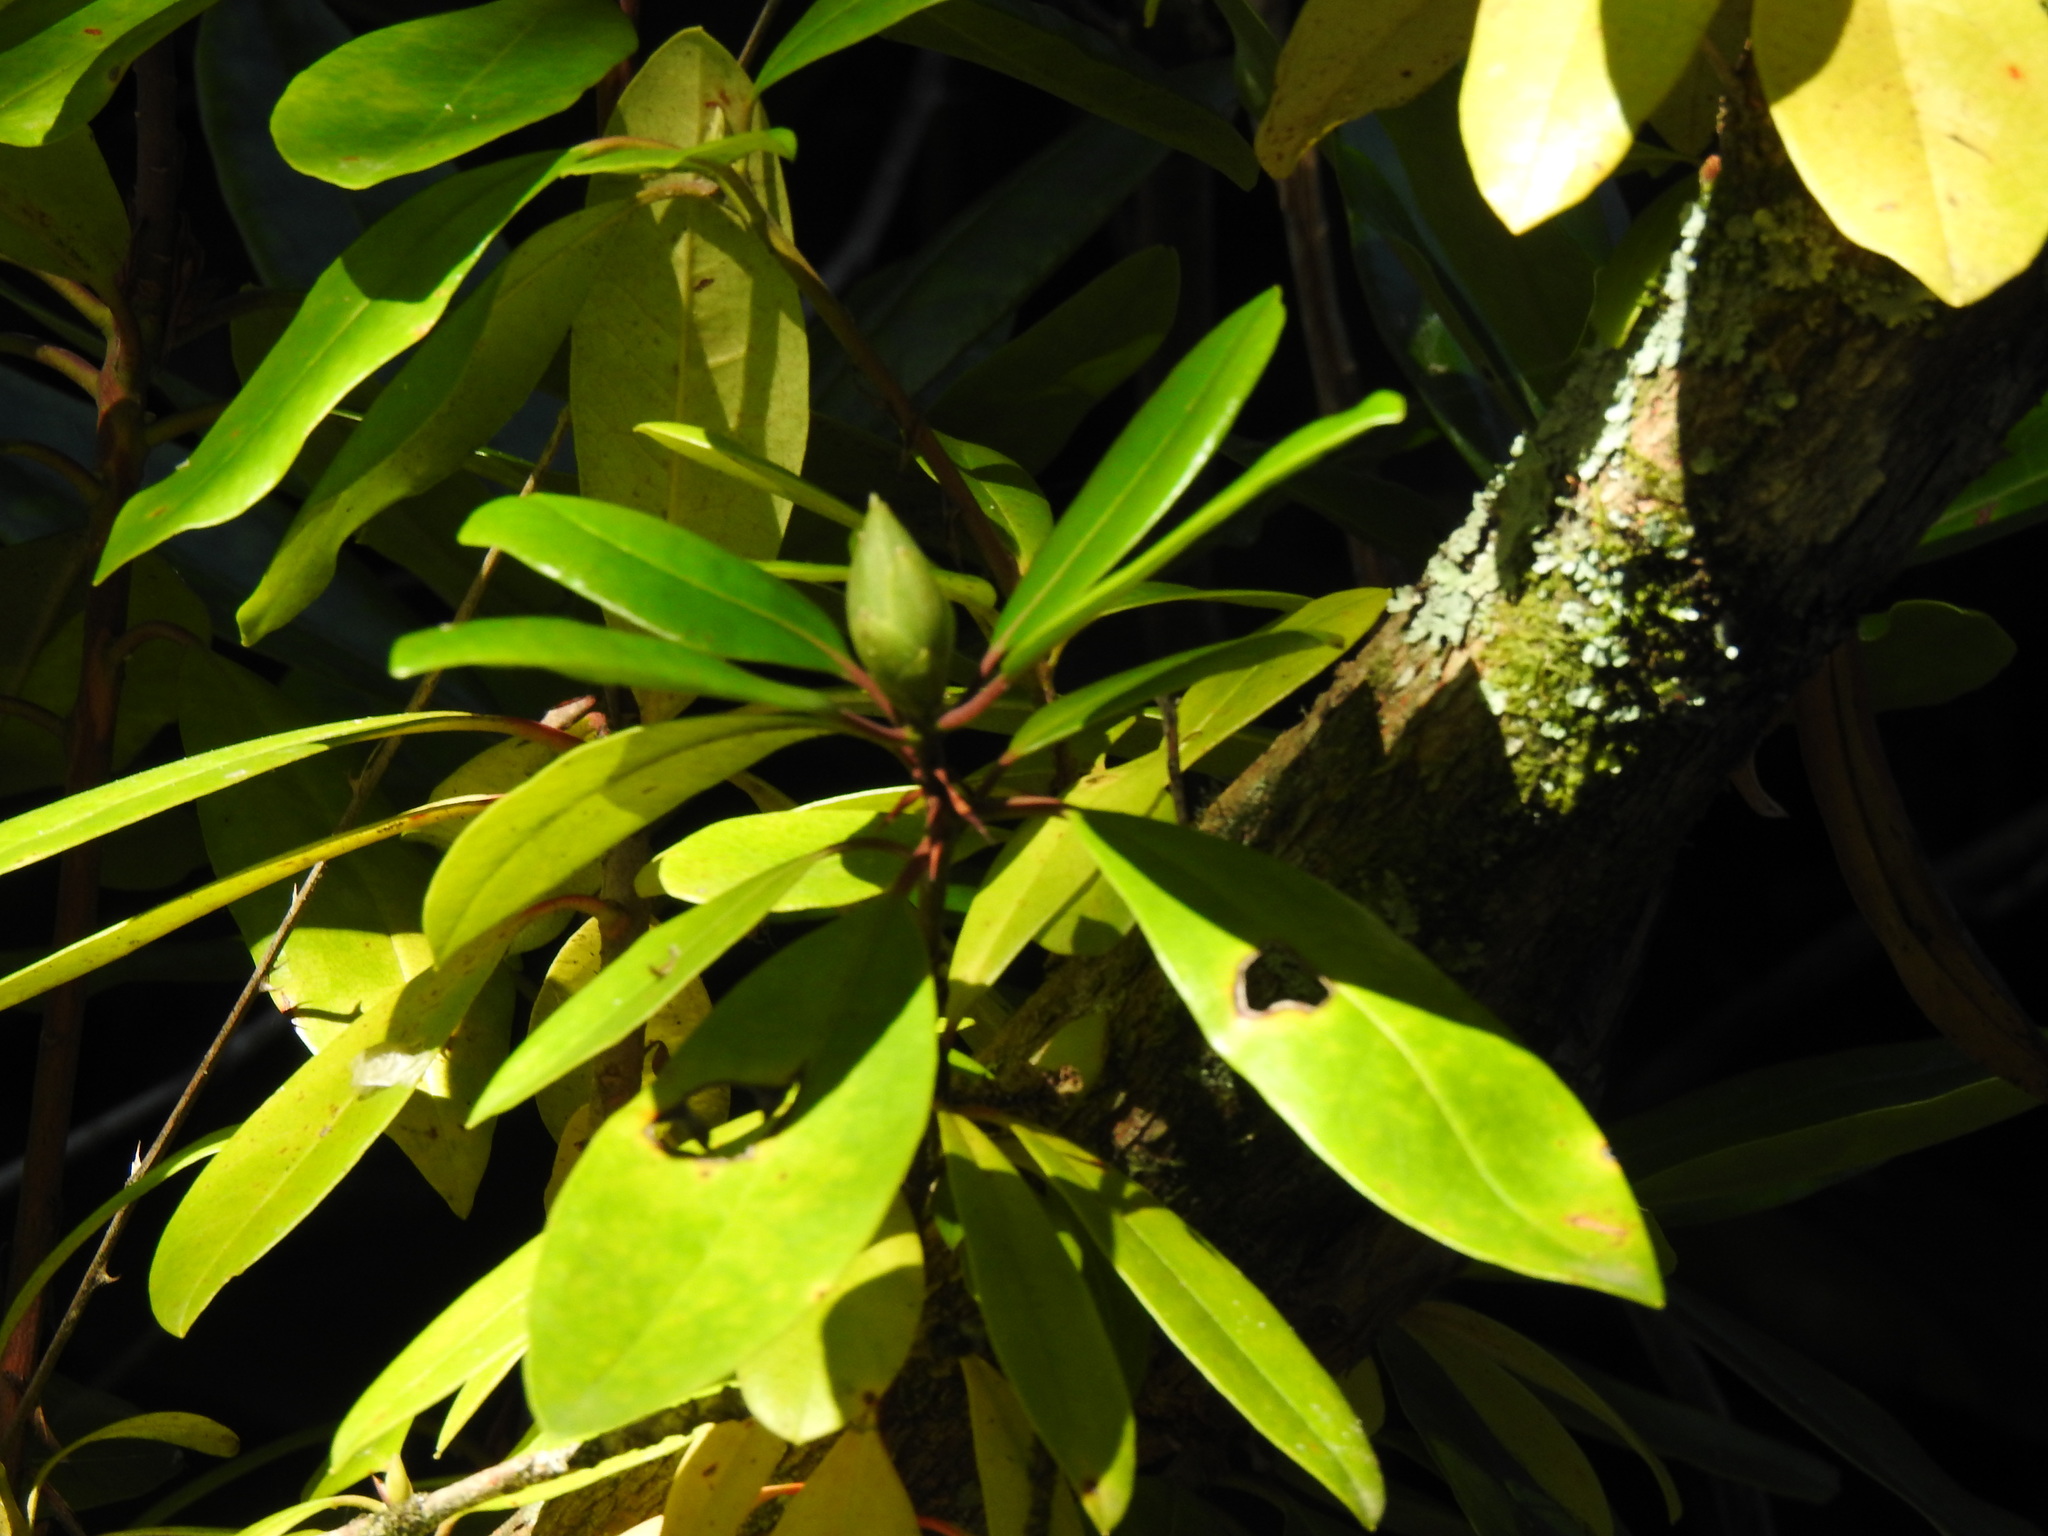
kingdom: Plantae
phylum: Tracheophyta
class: Magnoliopsida
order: Ericales
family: Ericaceae
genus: Rhododendron
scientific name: Rhododendron ponticum
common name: Rhododendron
